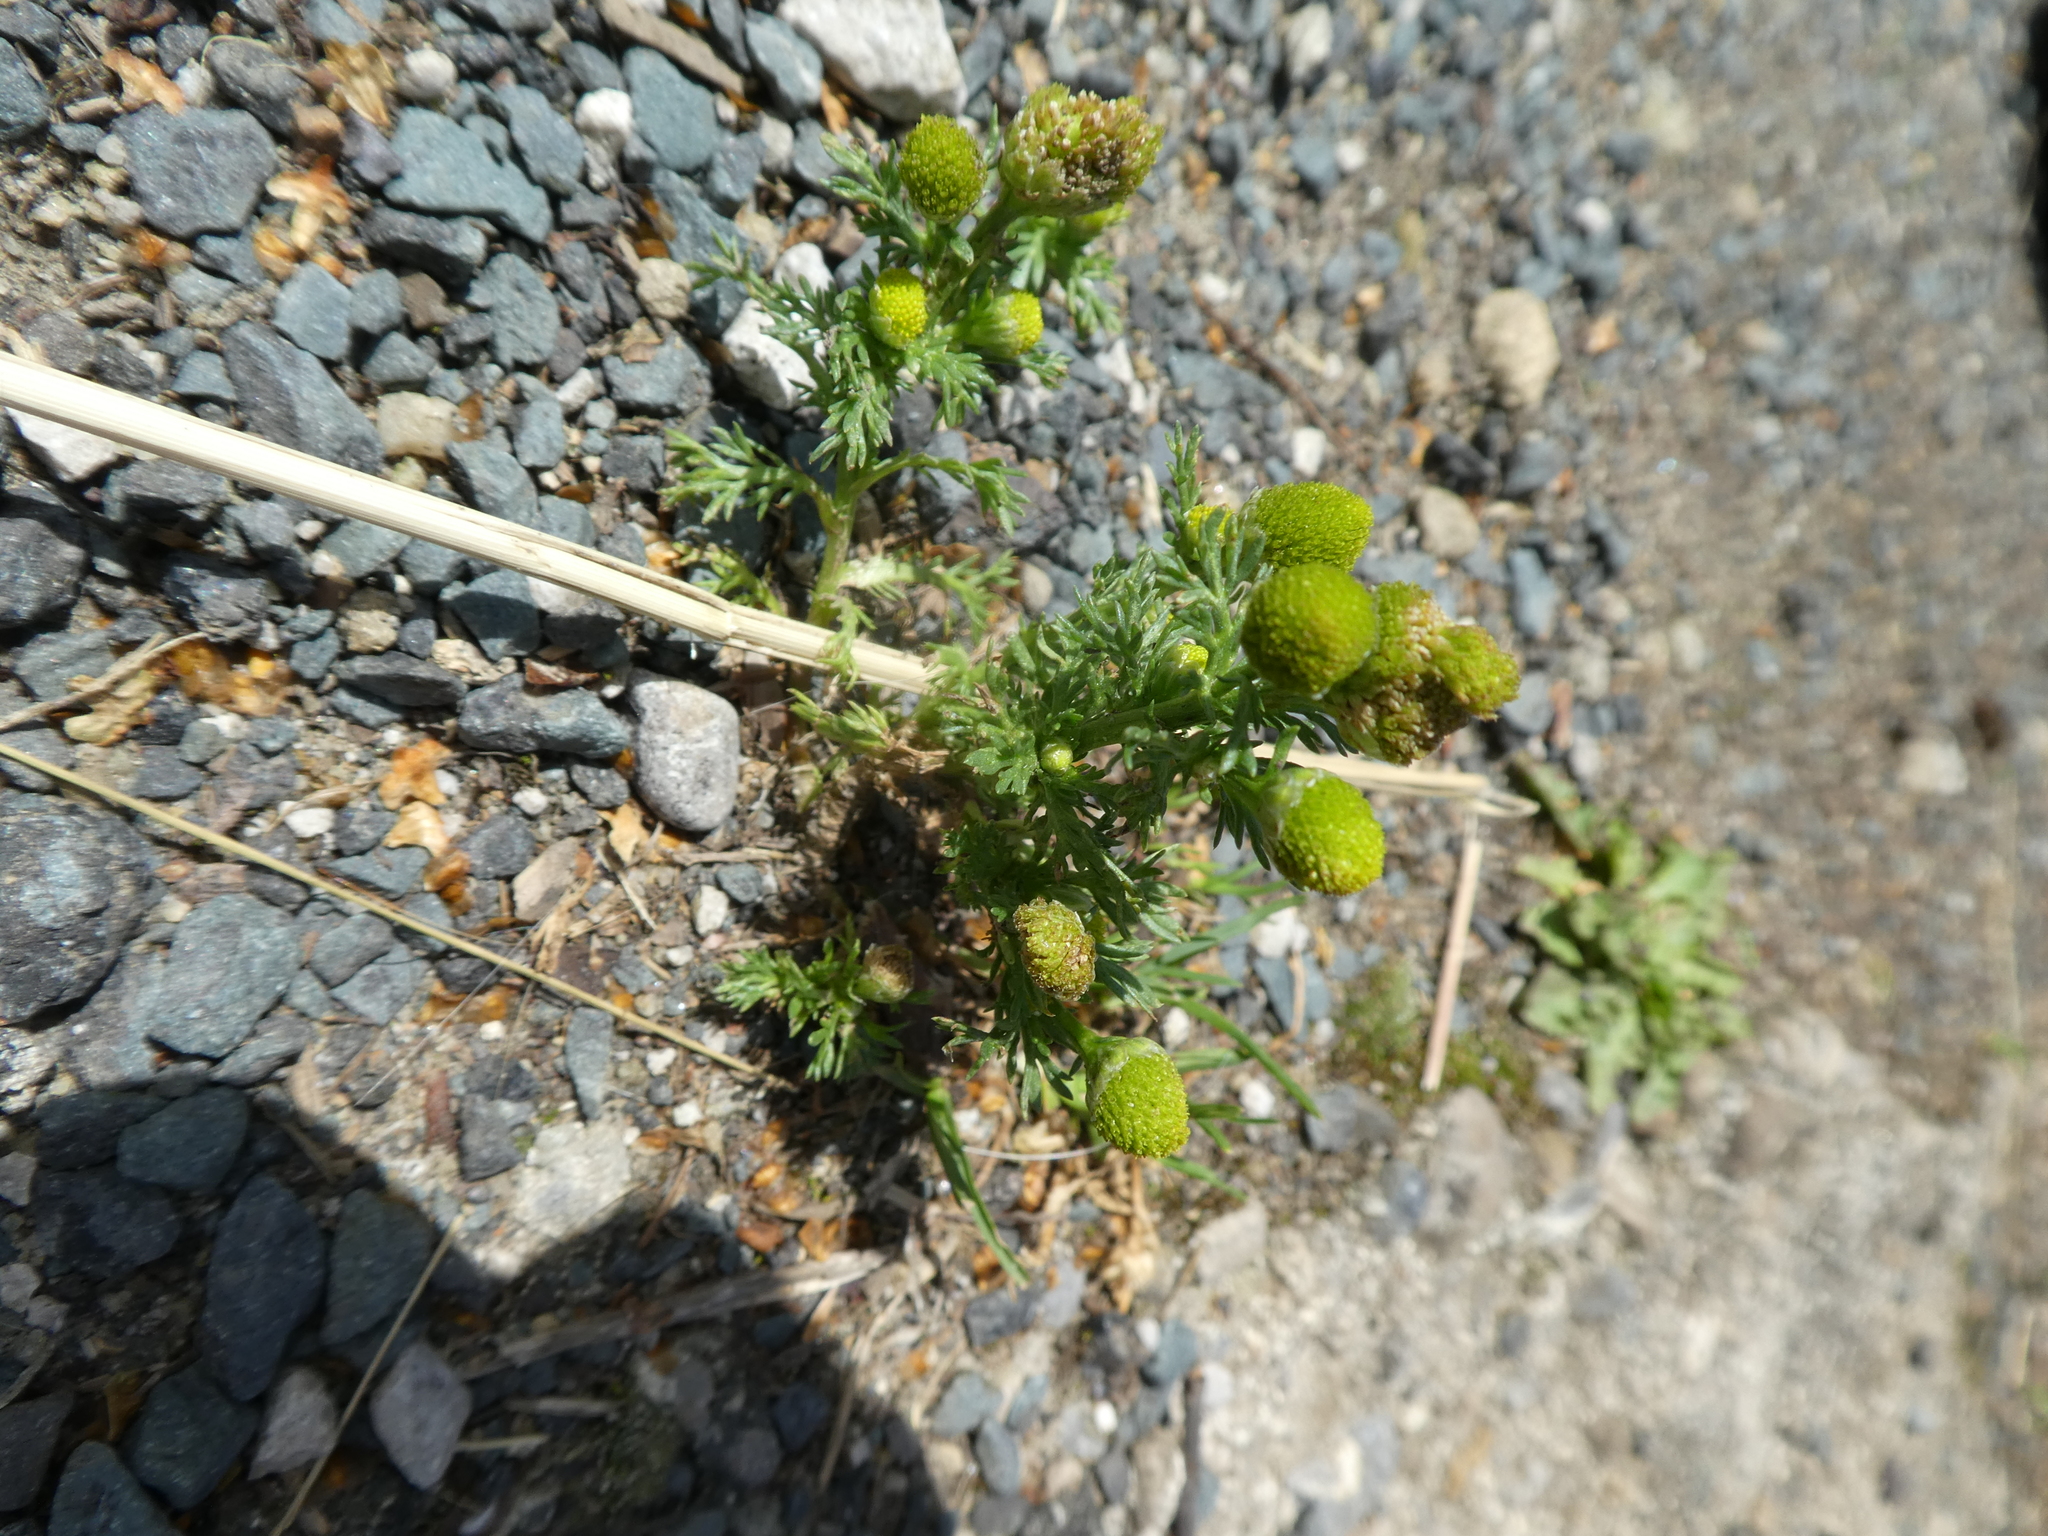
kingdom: Plantae
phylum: Tracheophyta
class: Magnoliopsida
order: Asterales
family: Asteraceae
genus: Matricaria
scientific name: Matricaria discoidea
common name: Disc mayweed
